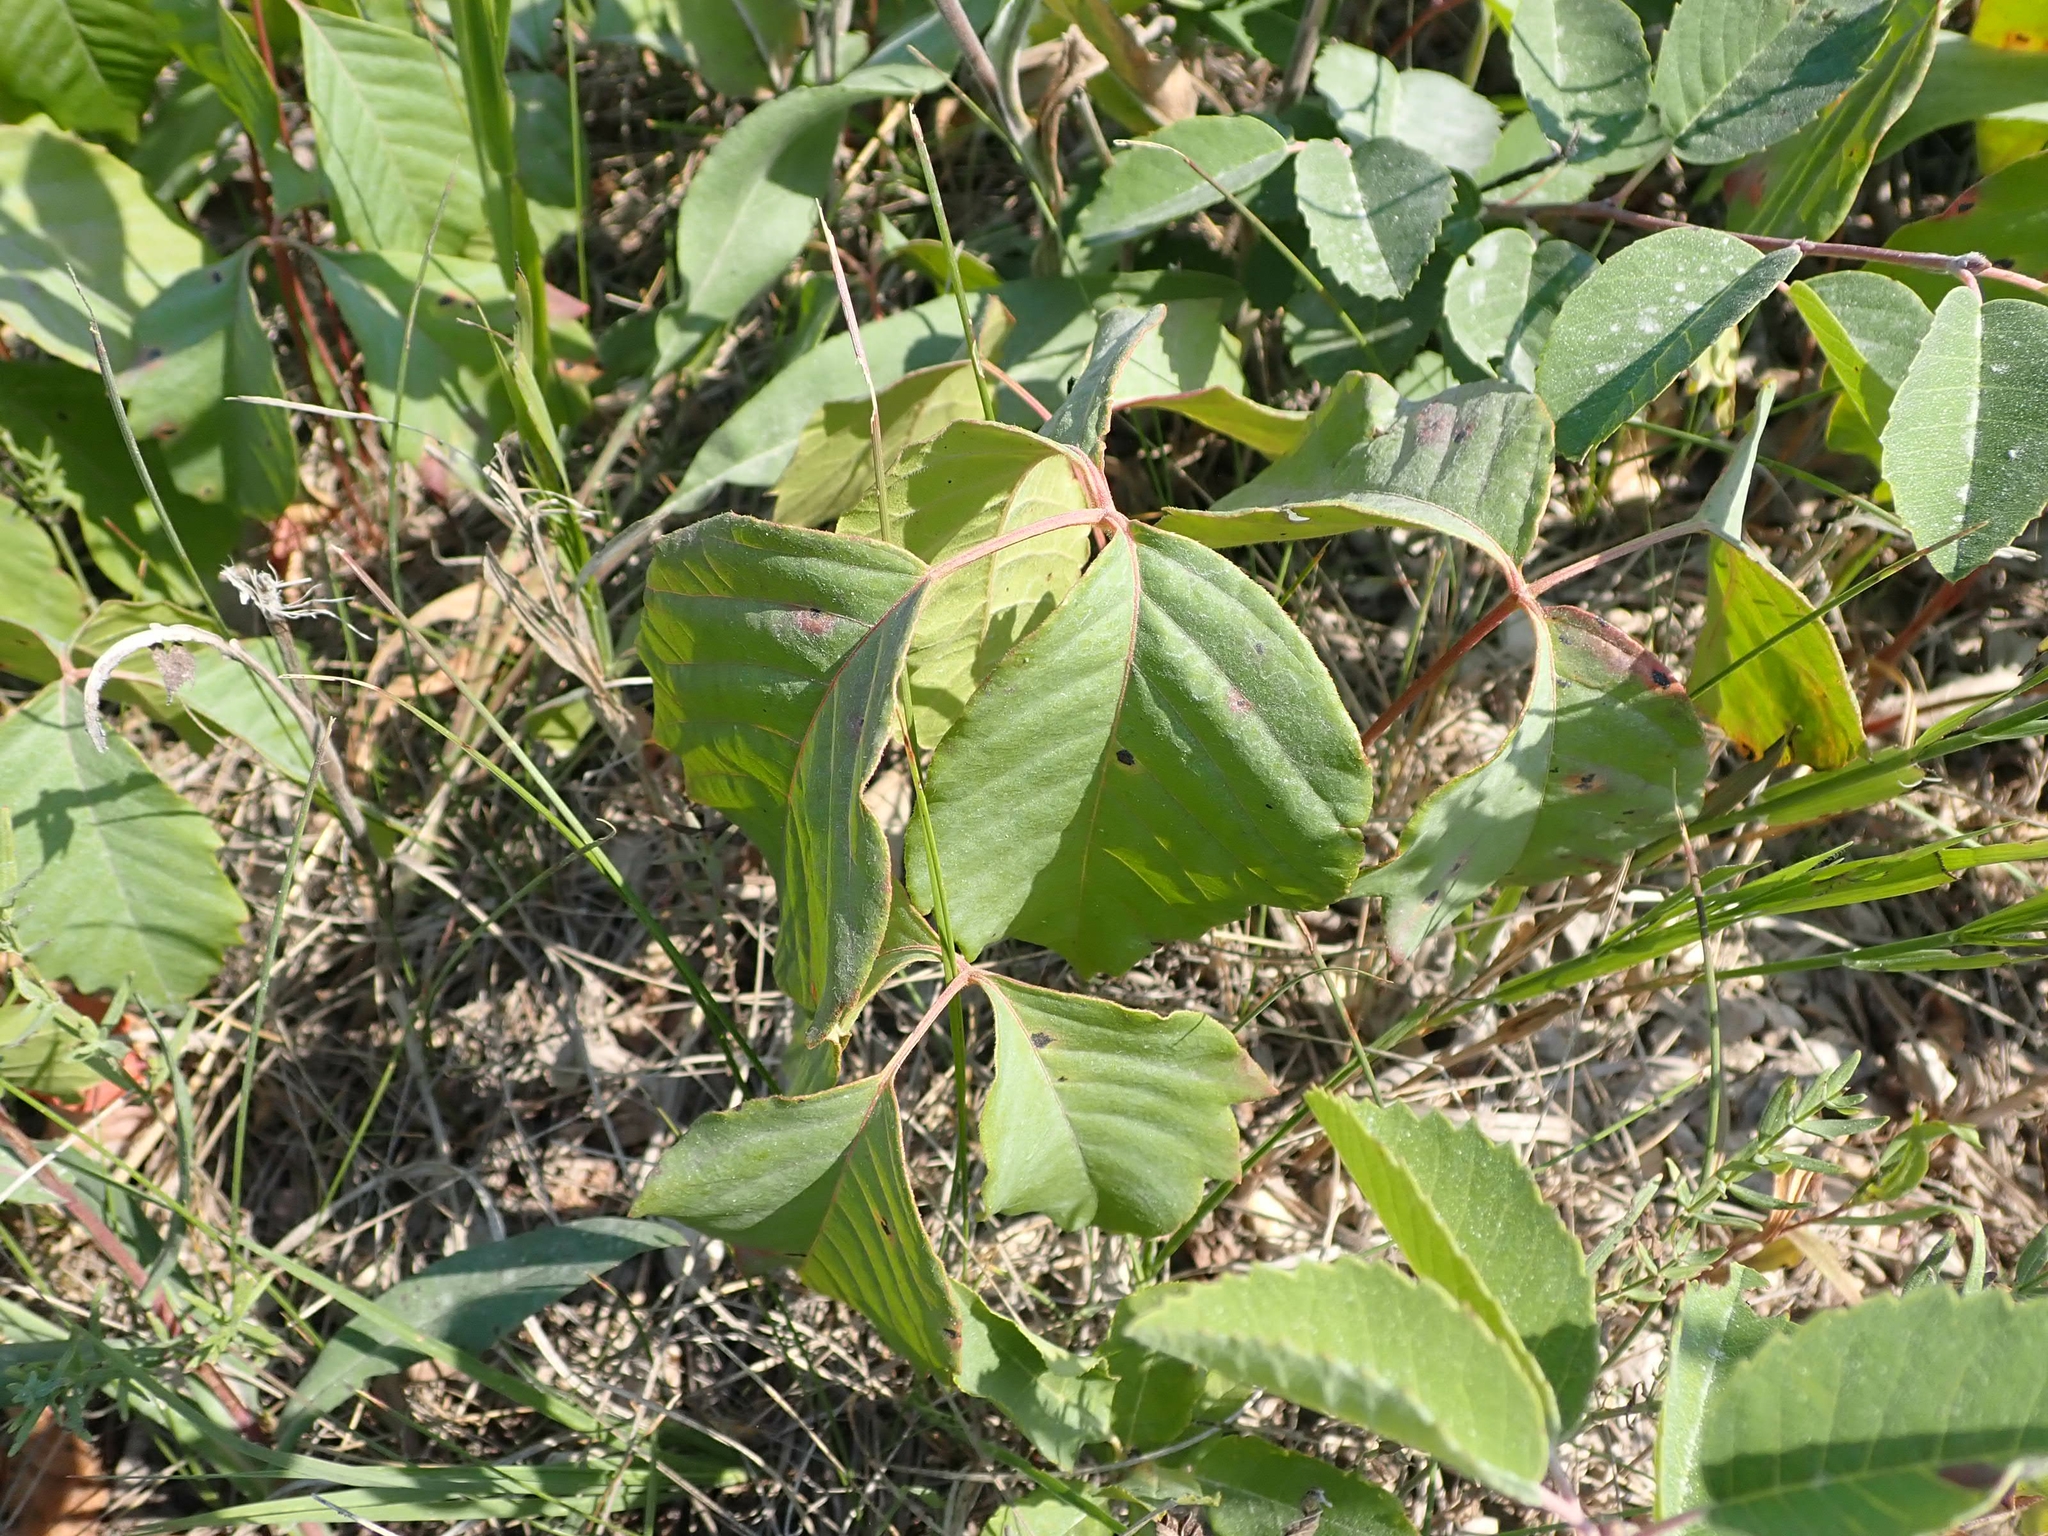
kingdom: Plantae
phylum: Tracheophyta
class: Magnoliopsida
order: Sapindales
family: Anacardiaceae
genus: Toxicodendron
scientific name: Toxicodendron rydbergii
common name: Rydberg's poison-ivy
